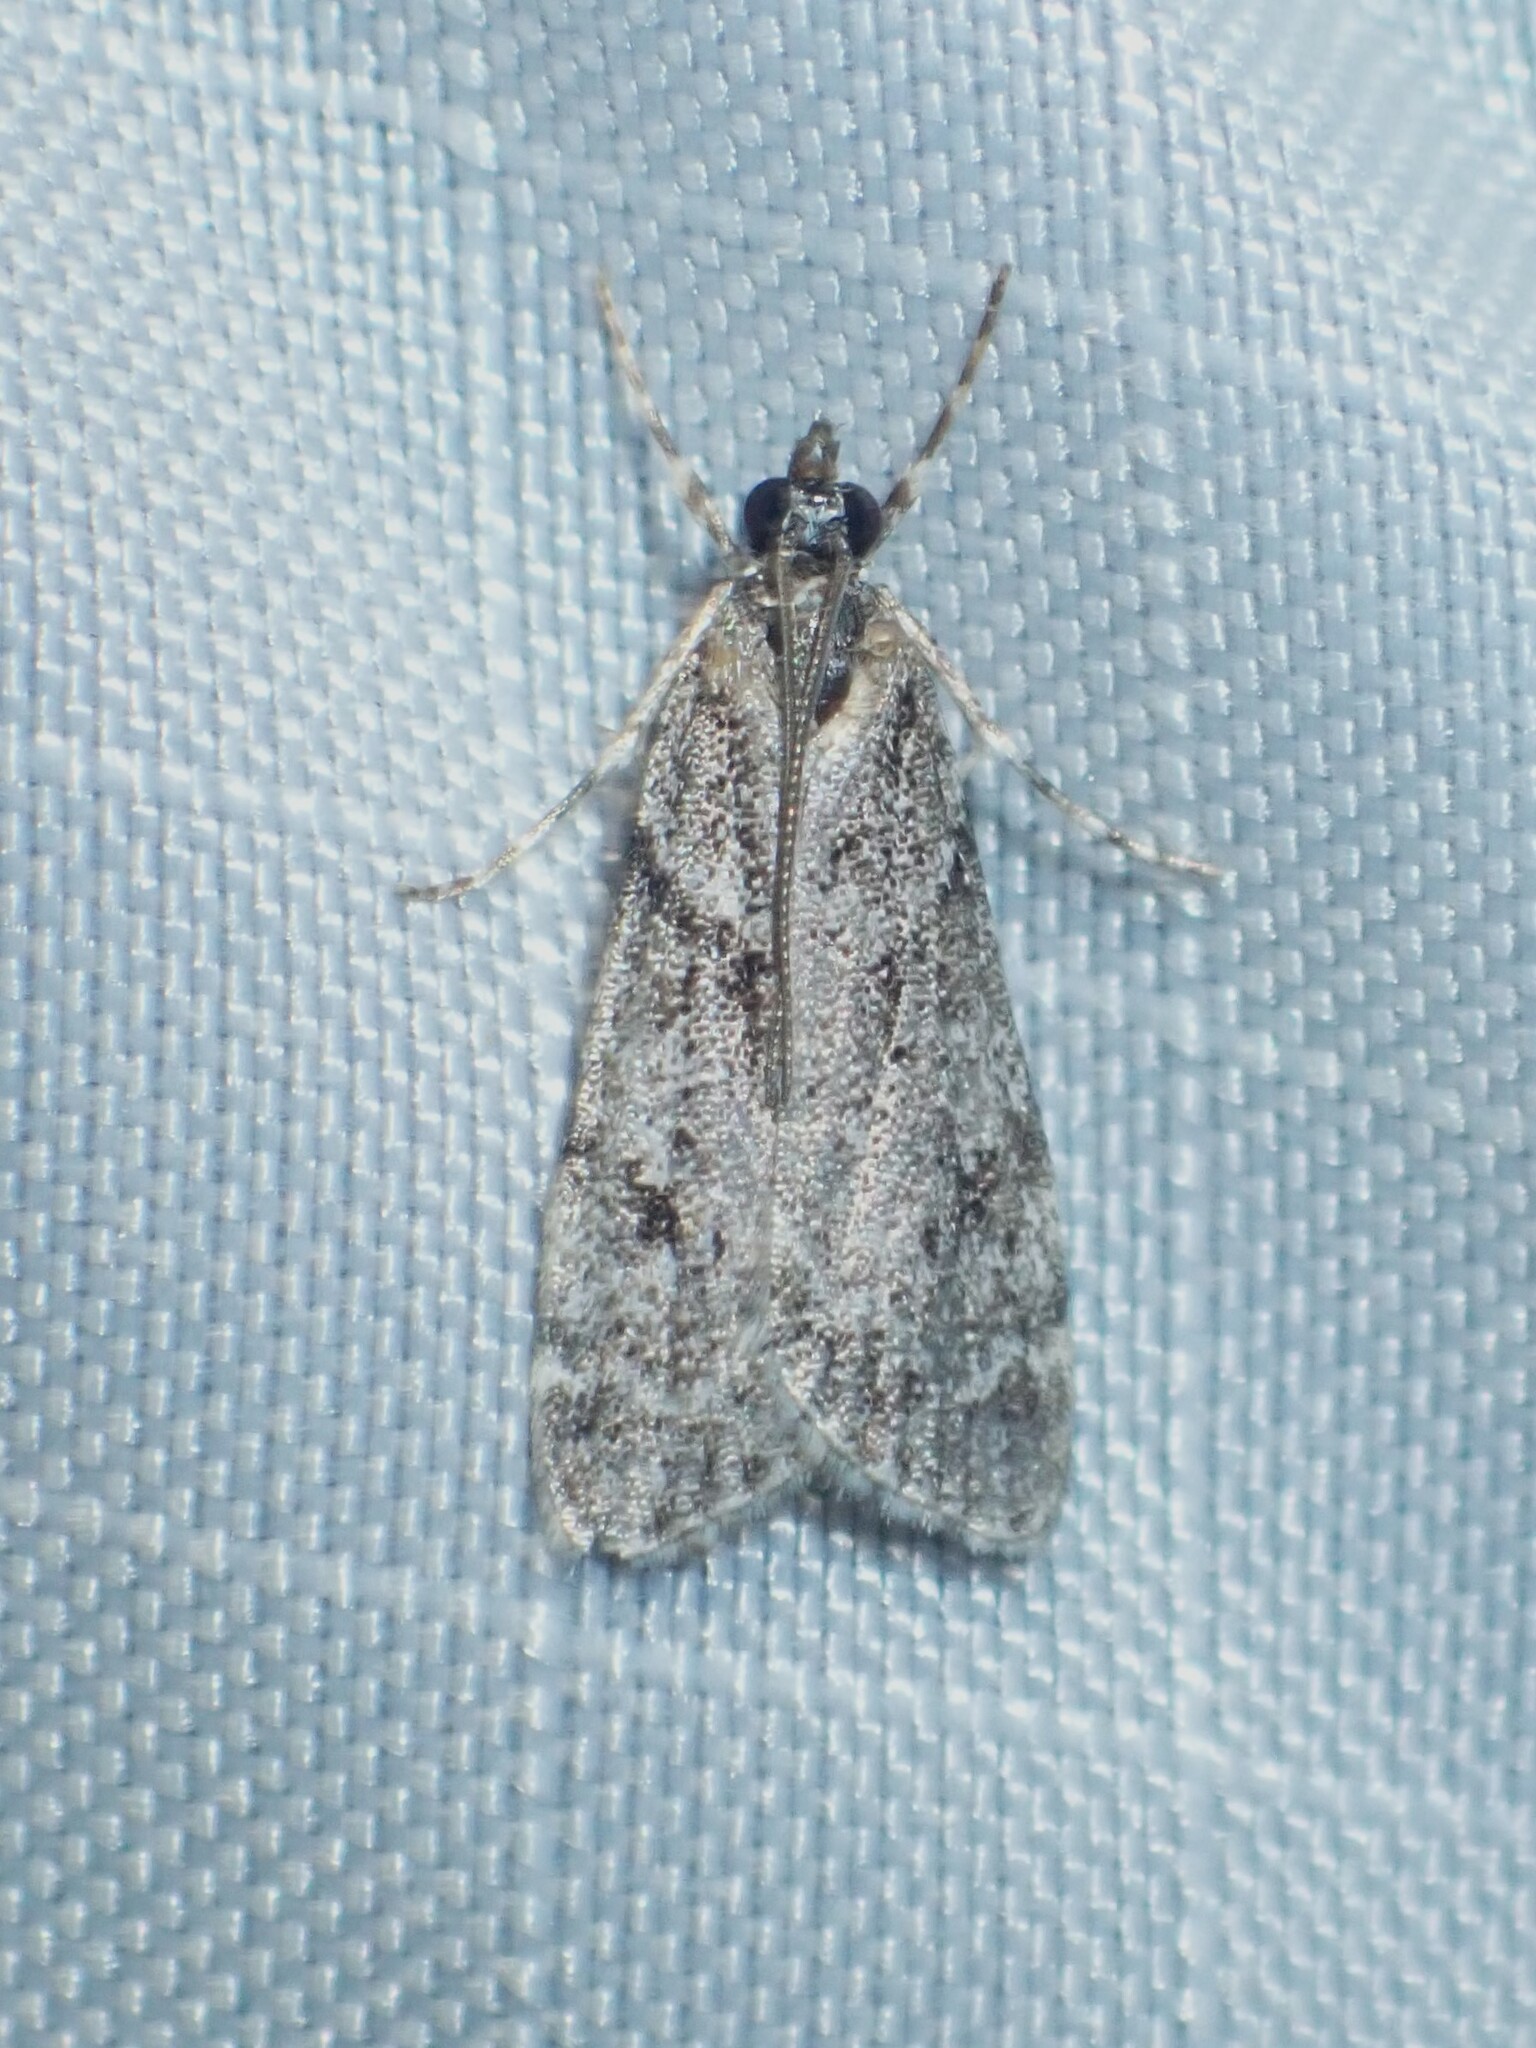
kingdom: Animalia
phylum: Arthropoda
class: Insecta
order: Lepidoptera
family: Crambidae
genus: Scoparia
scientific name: Scoparia biplagialis
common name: Double-striped scoparia moth
